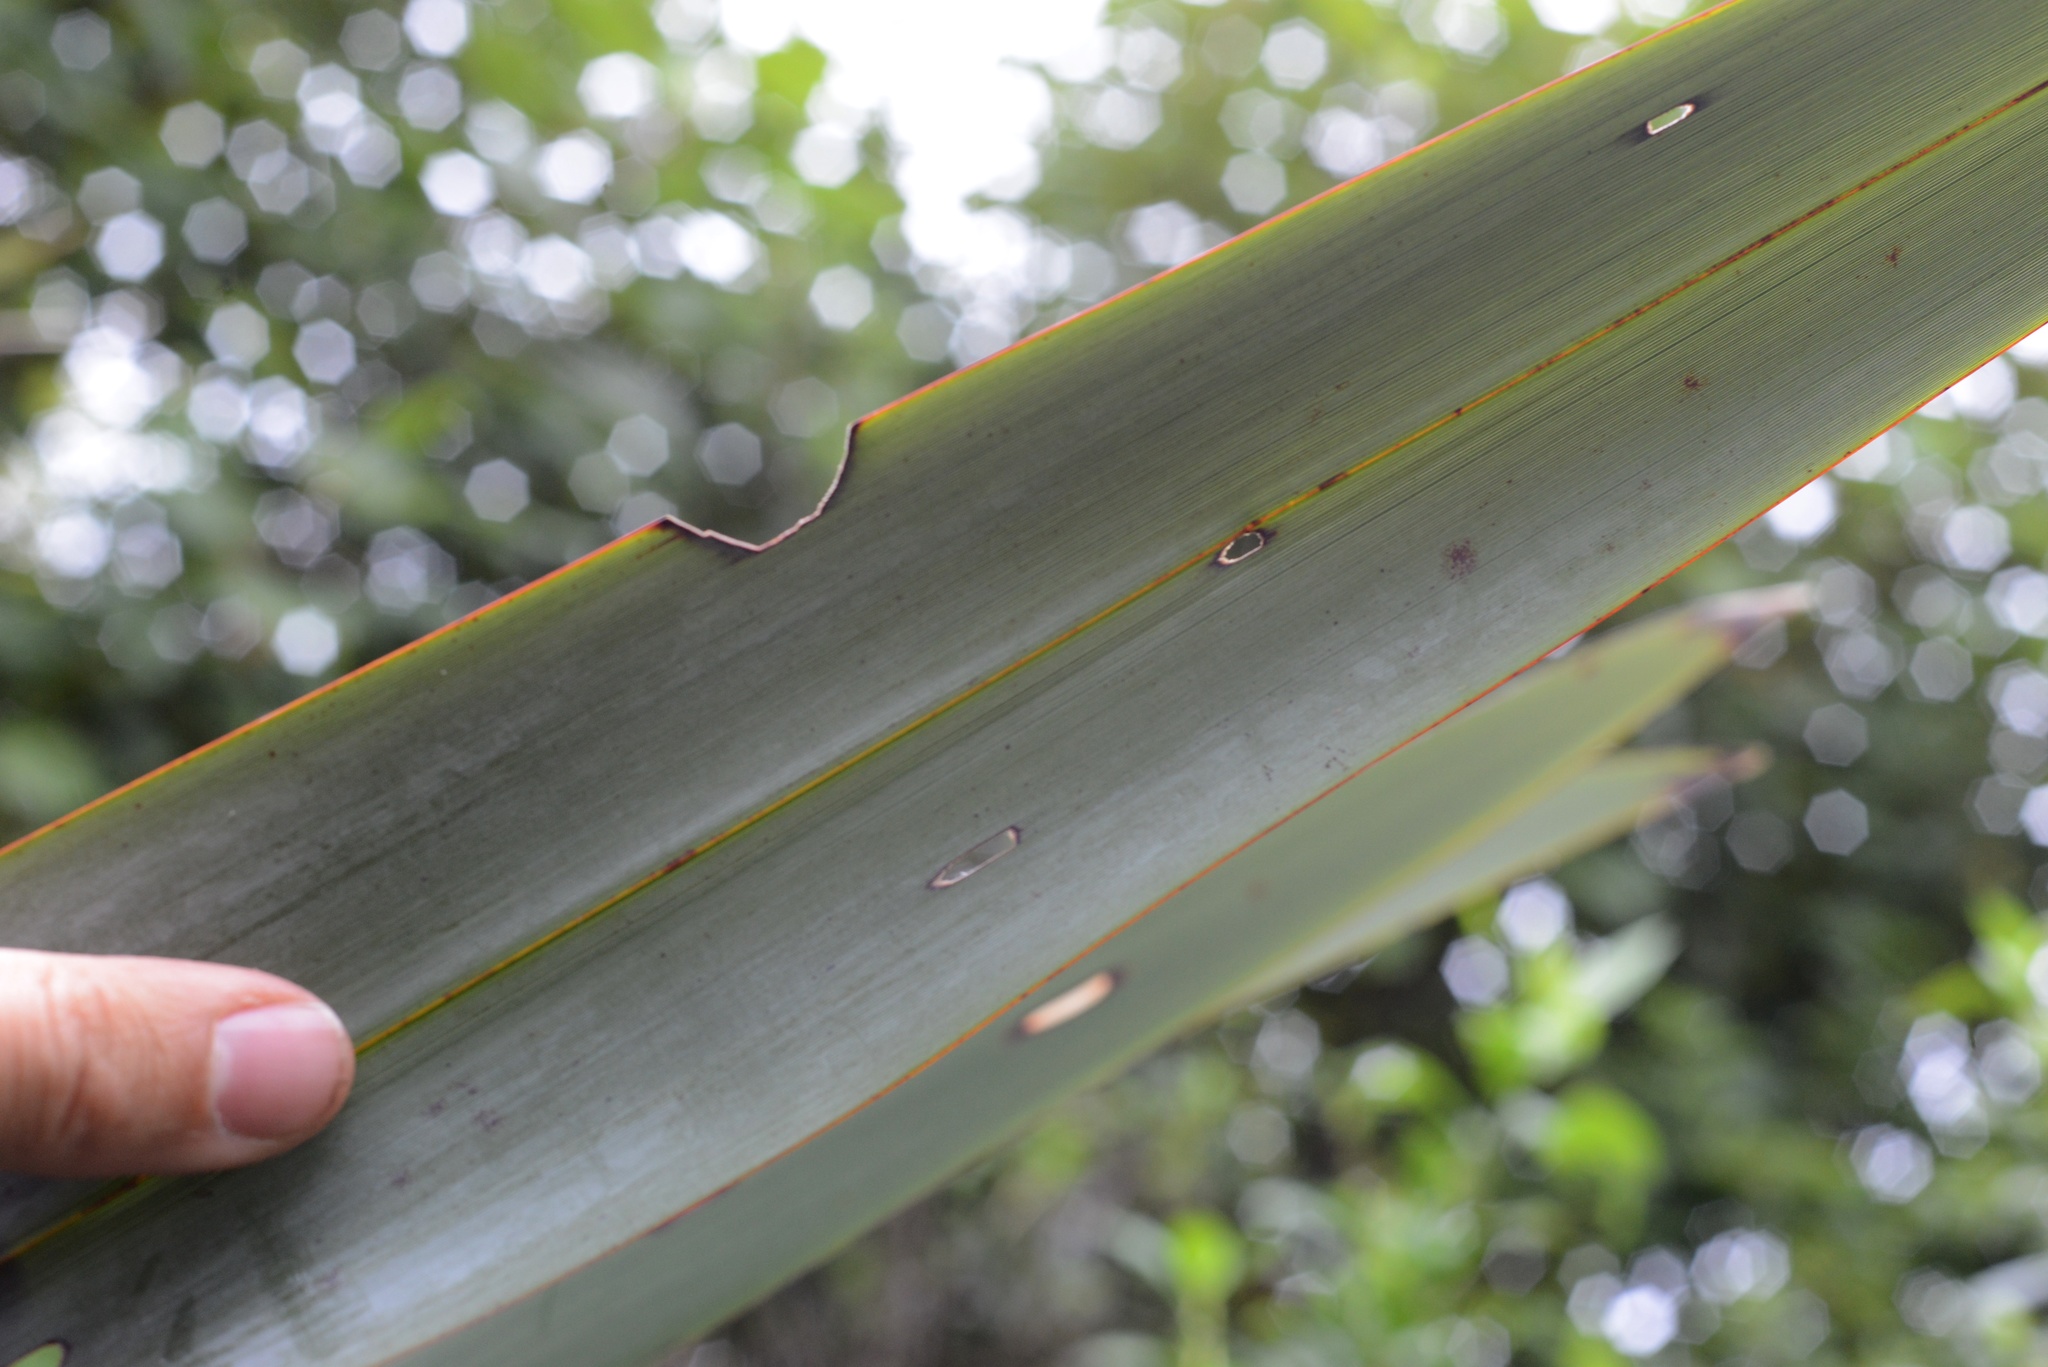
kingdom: Animalia
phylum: Arthropoda
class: Insecta
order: Lepidoptera
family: Noctuidae
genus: Ichneutica
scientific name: Ichneutica
